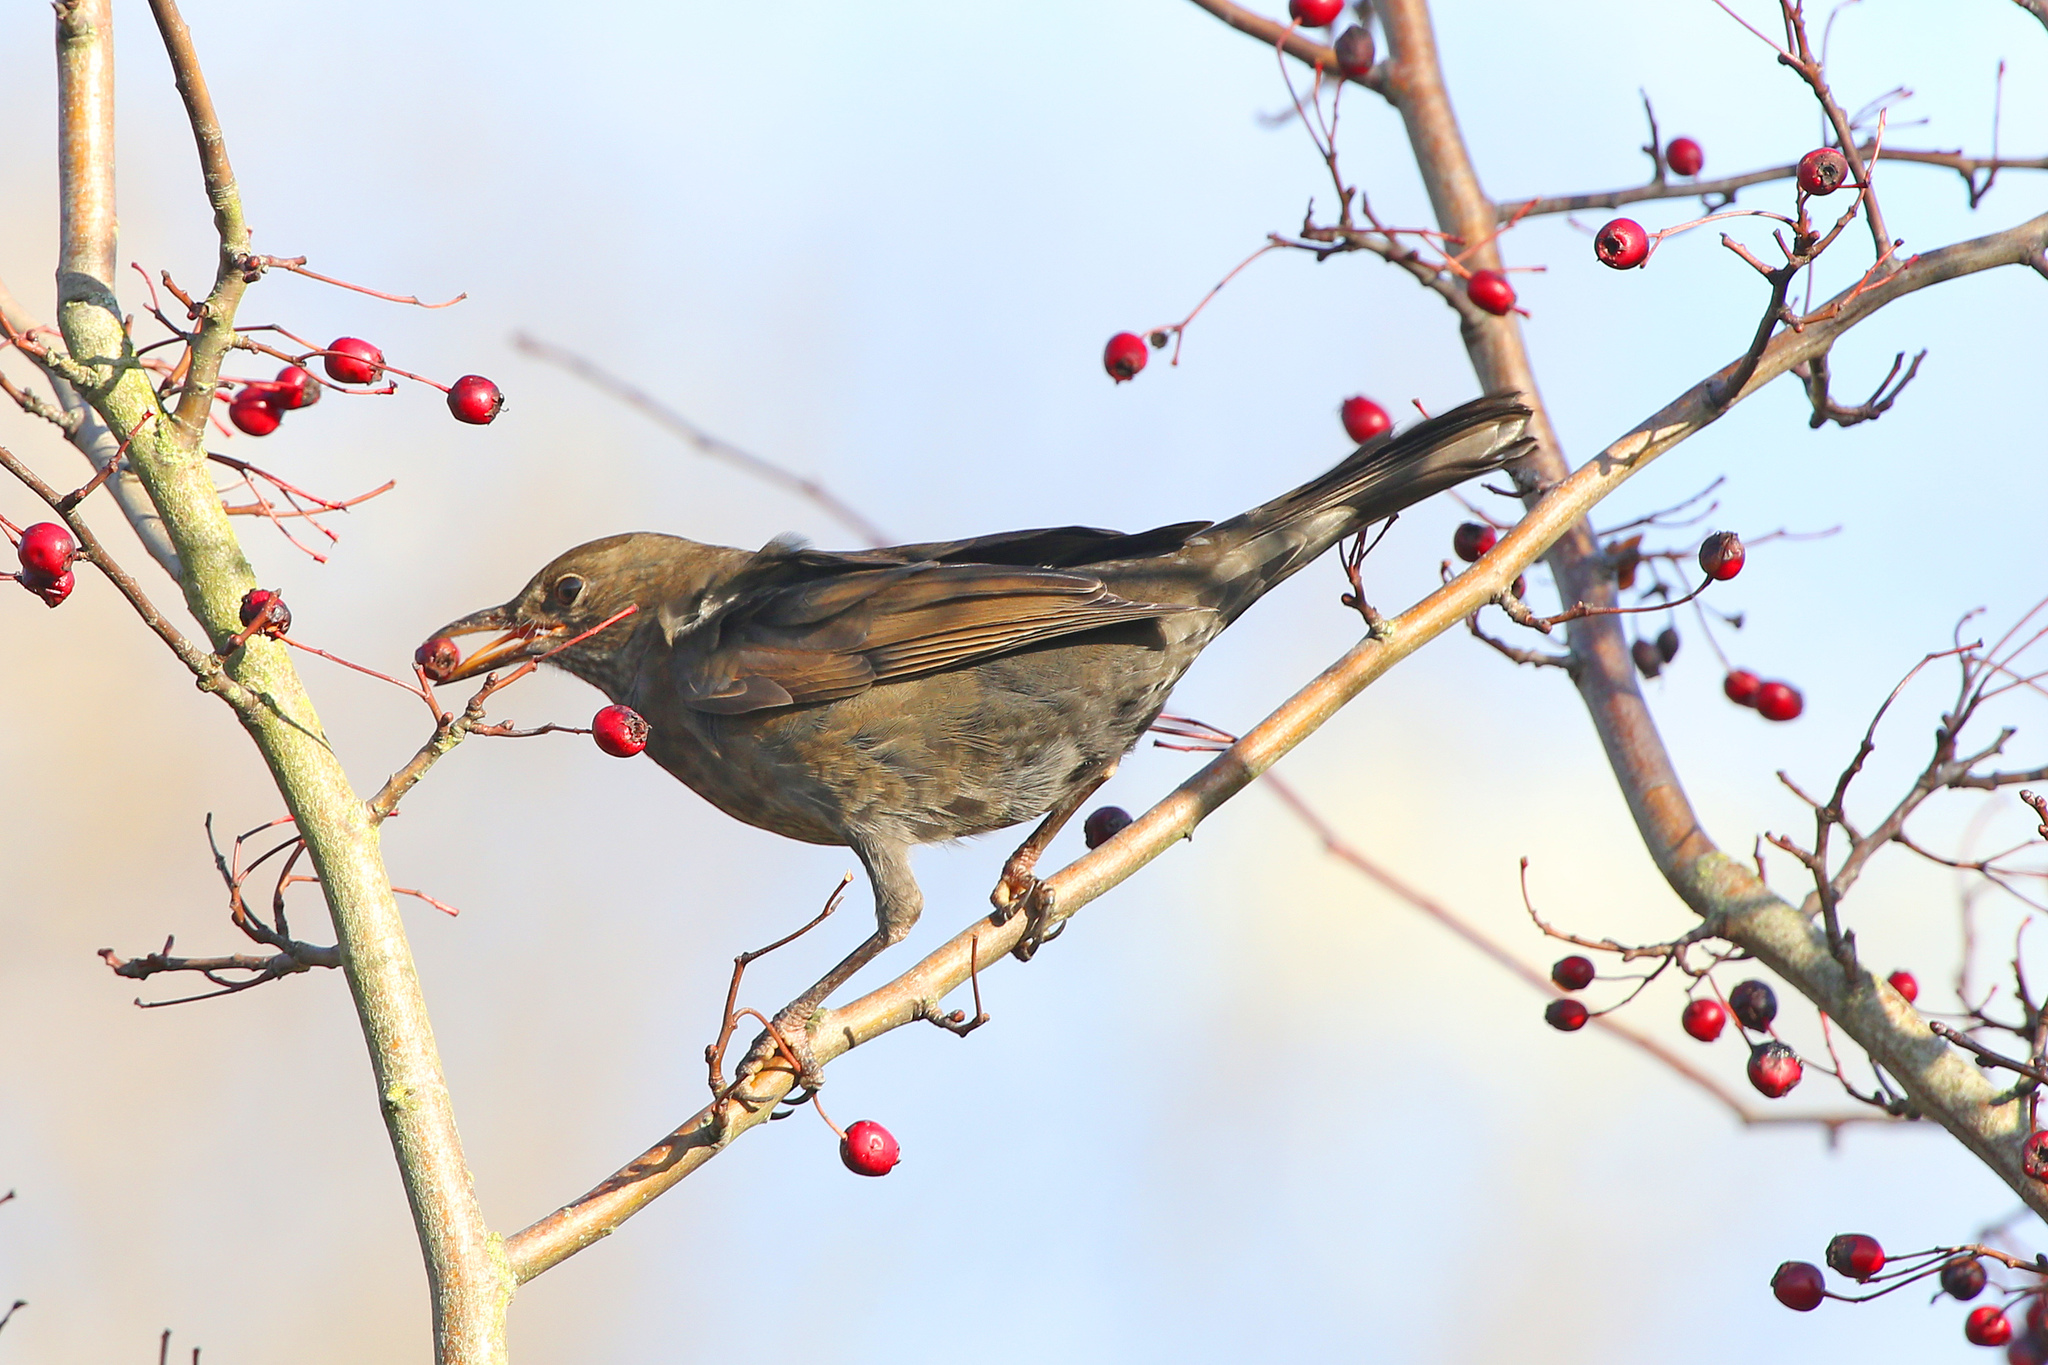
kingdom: Animalia
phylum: Chordata
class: Aves
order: Passeriformes
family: Turdidae
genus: Turdus
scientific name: Turdus merula
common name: Common blackbird
